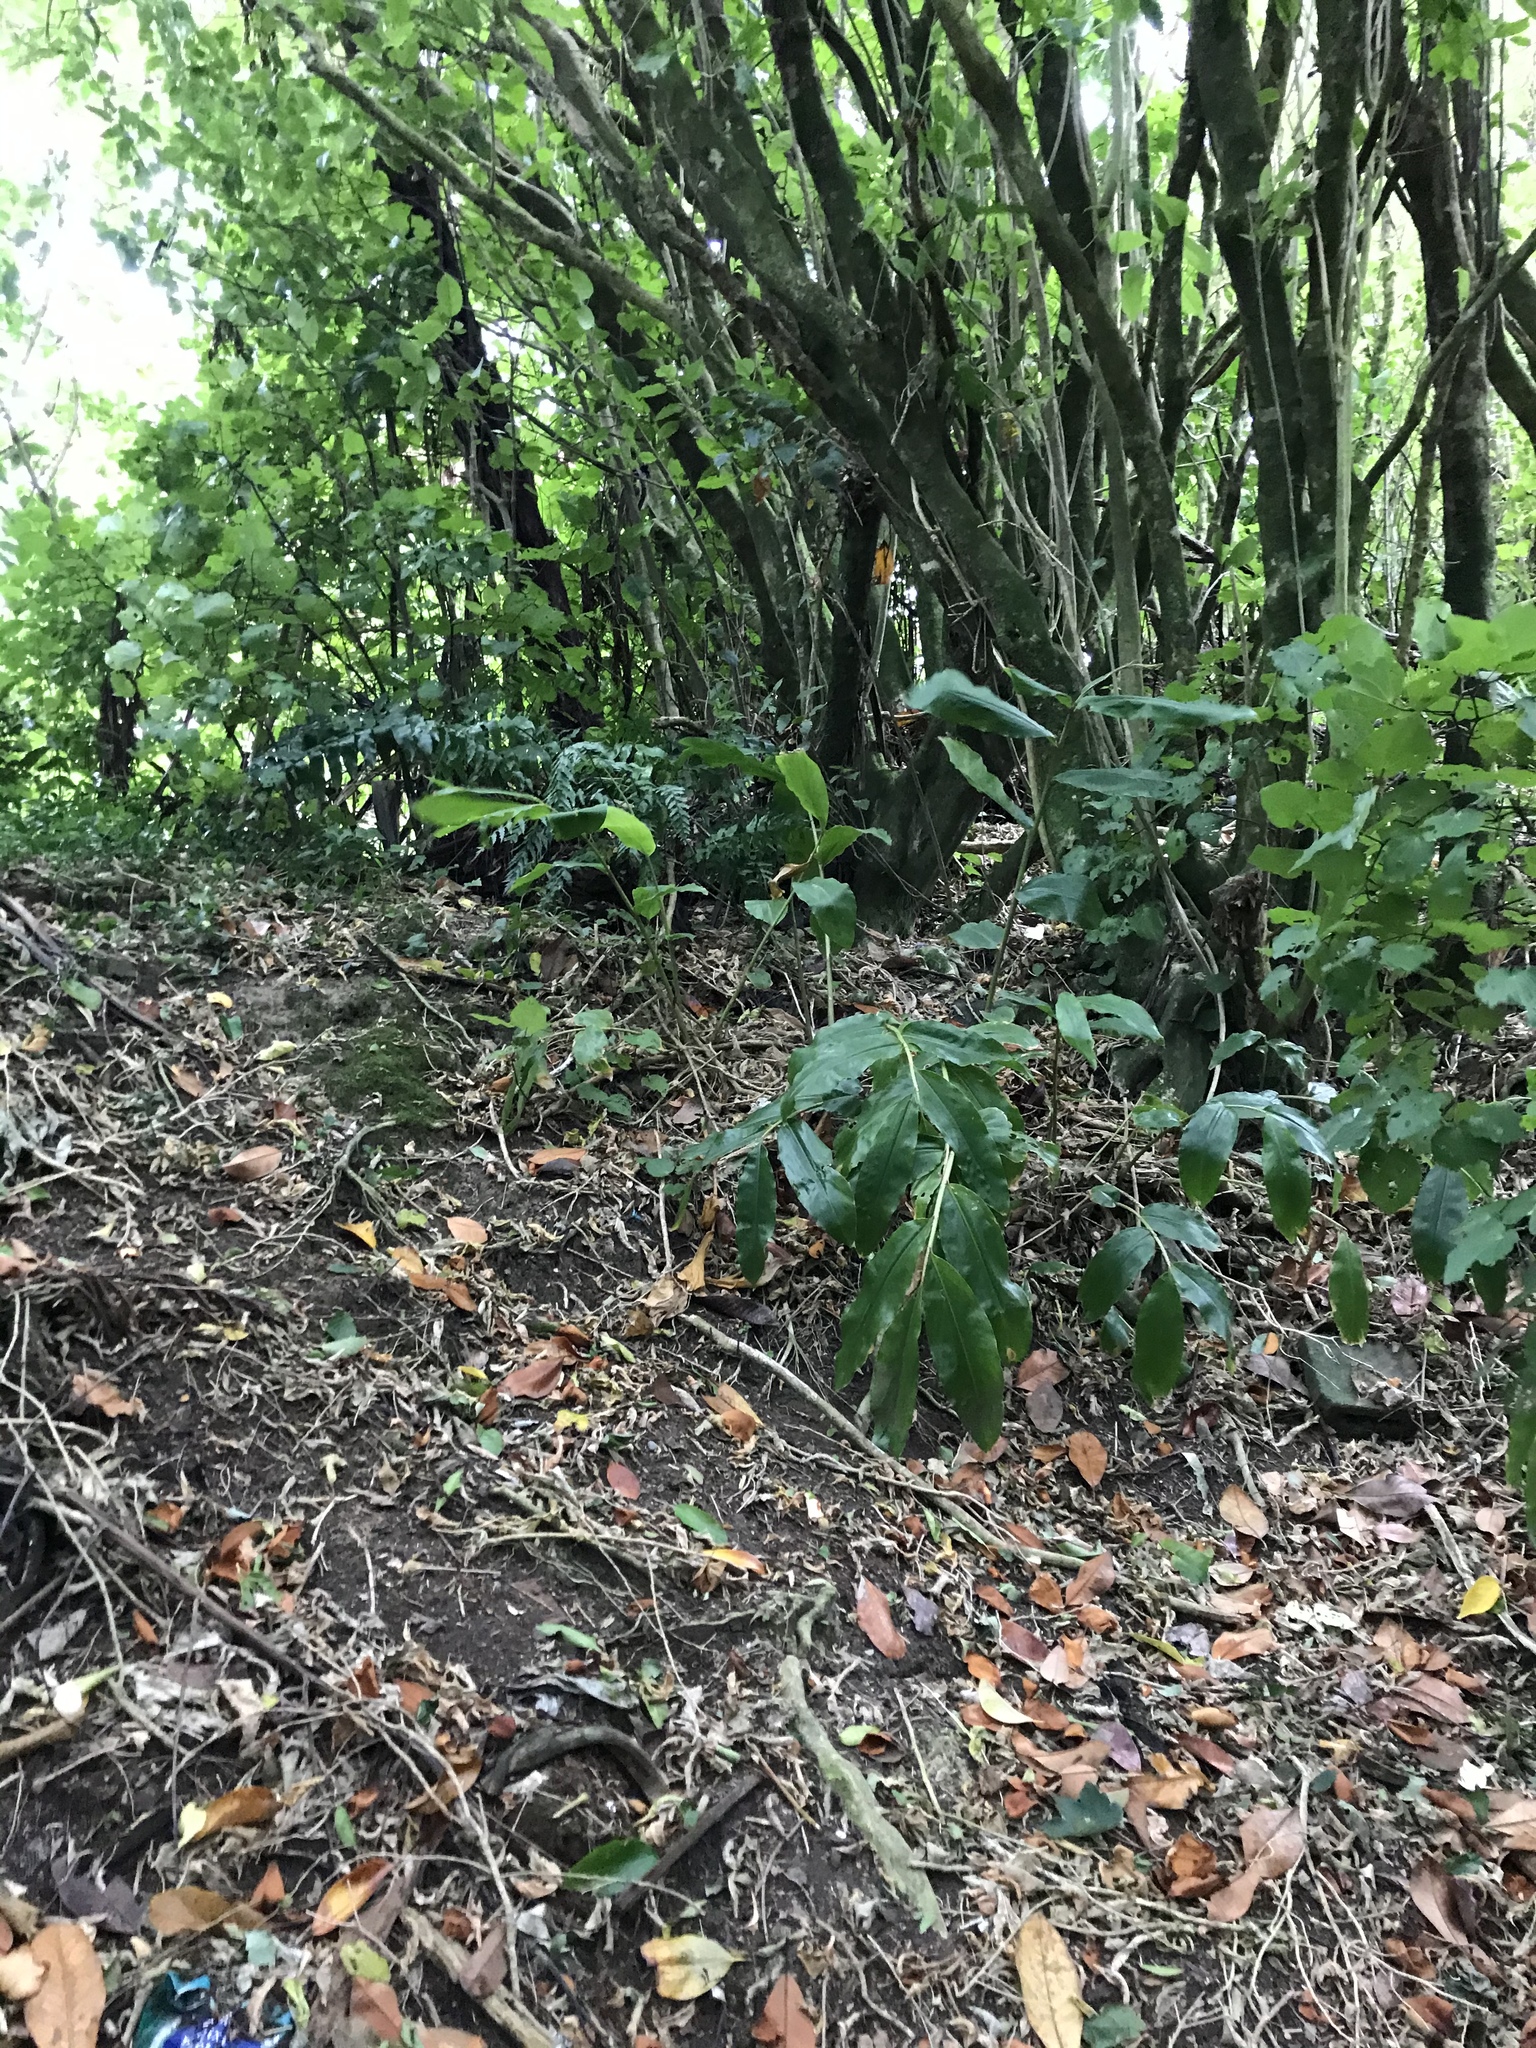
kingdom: Plantae
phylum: Tracheophyta
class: Liliopsida
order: Zingiberales
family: Zingiberaceae
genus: Hedychium
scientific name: Hedychium gardnerianum
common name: Himalayan ginger
